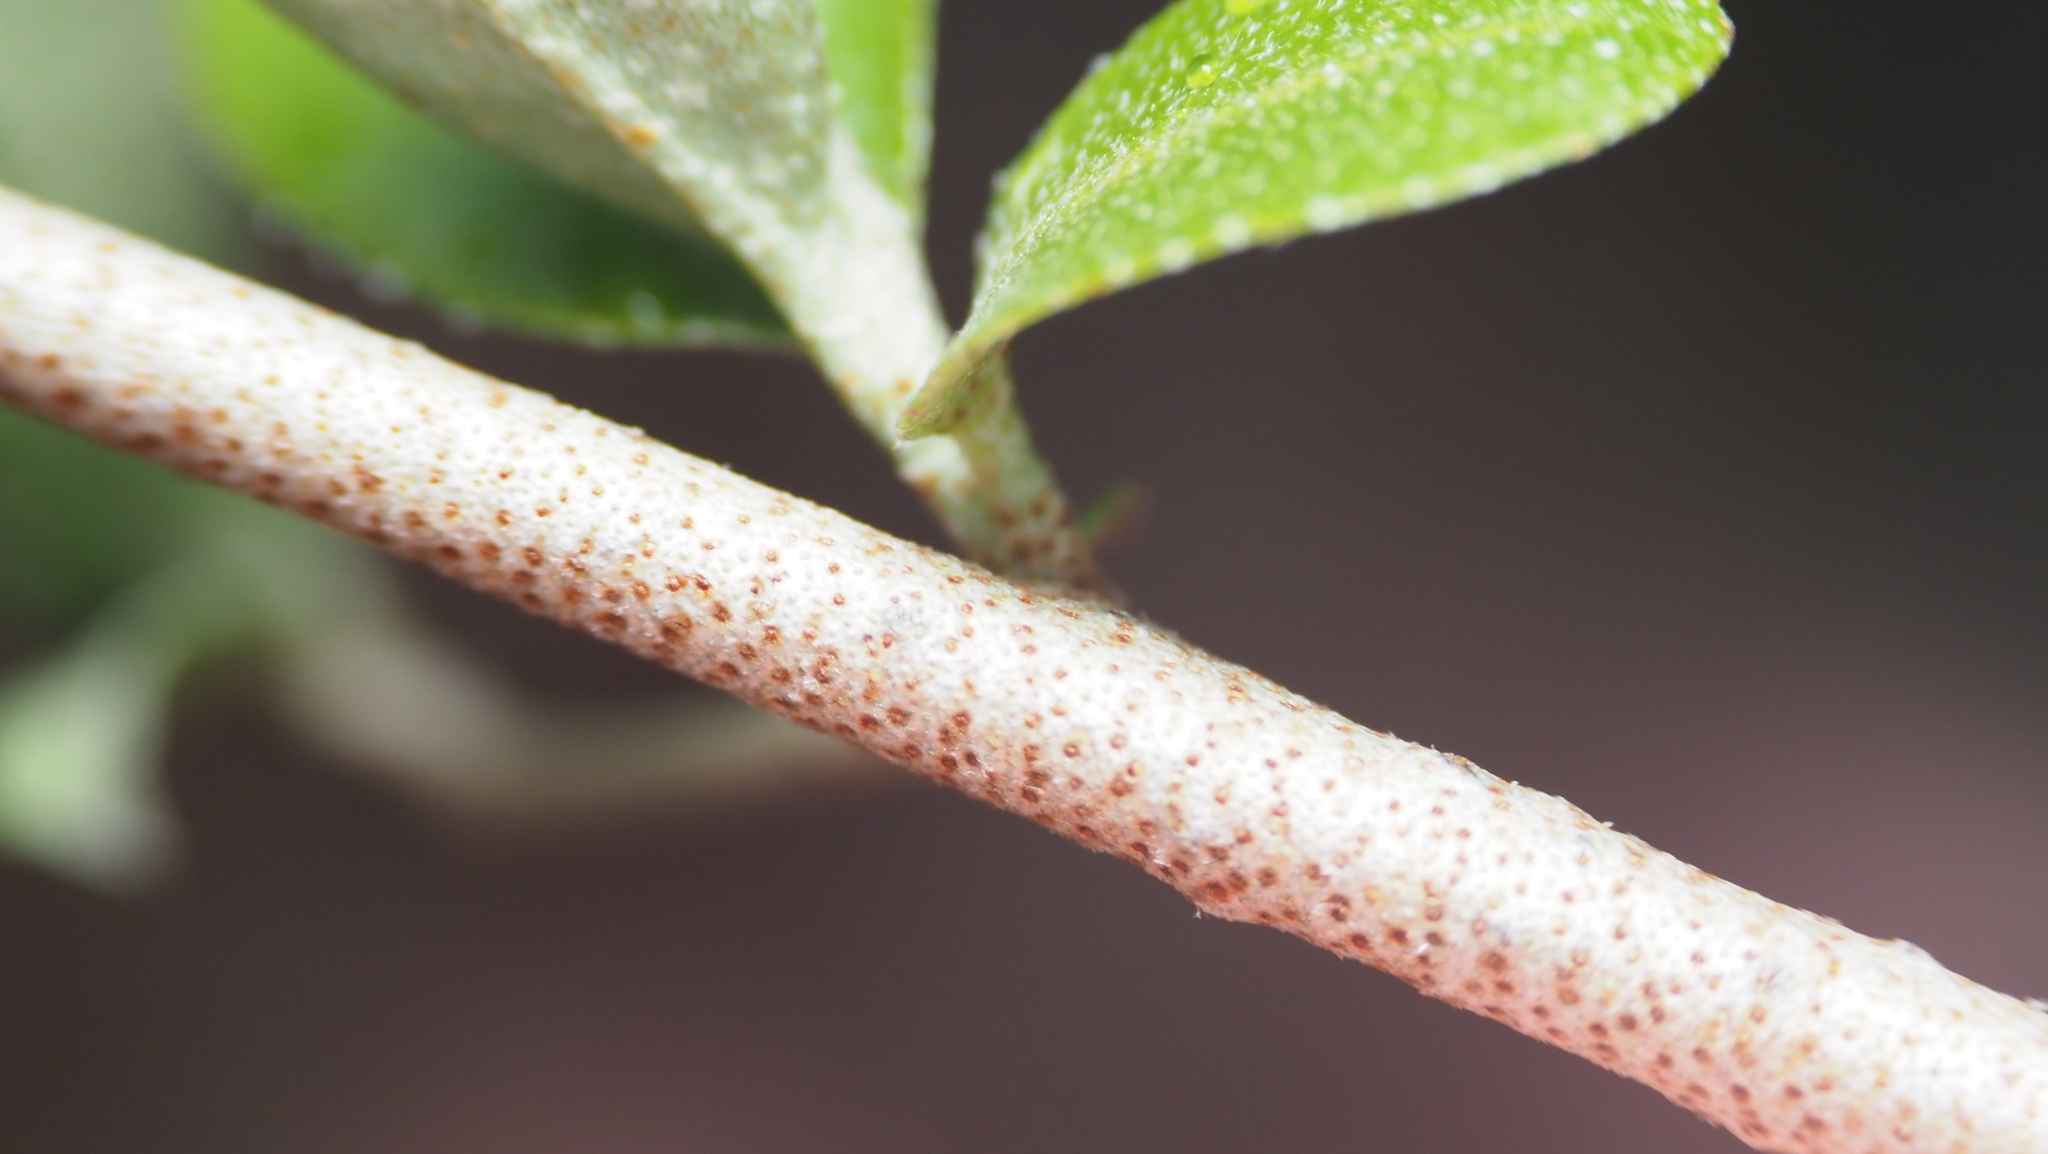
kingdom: Plantae
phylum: Tracheophyta
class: Magnoliopsida
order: Rosales
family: Elaeagnaceae
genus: Elaeagnus
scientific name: Elaeagnus umbellata
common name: Autumn olive
